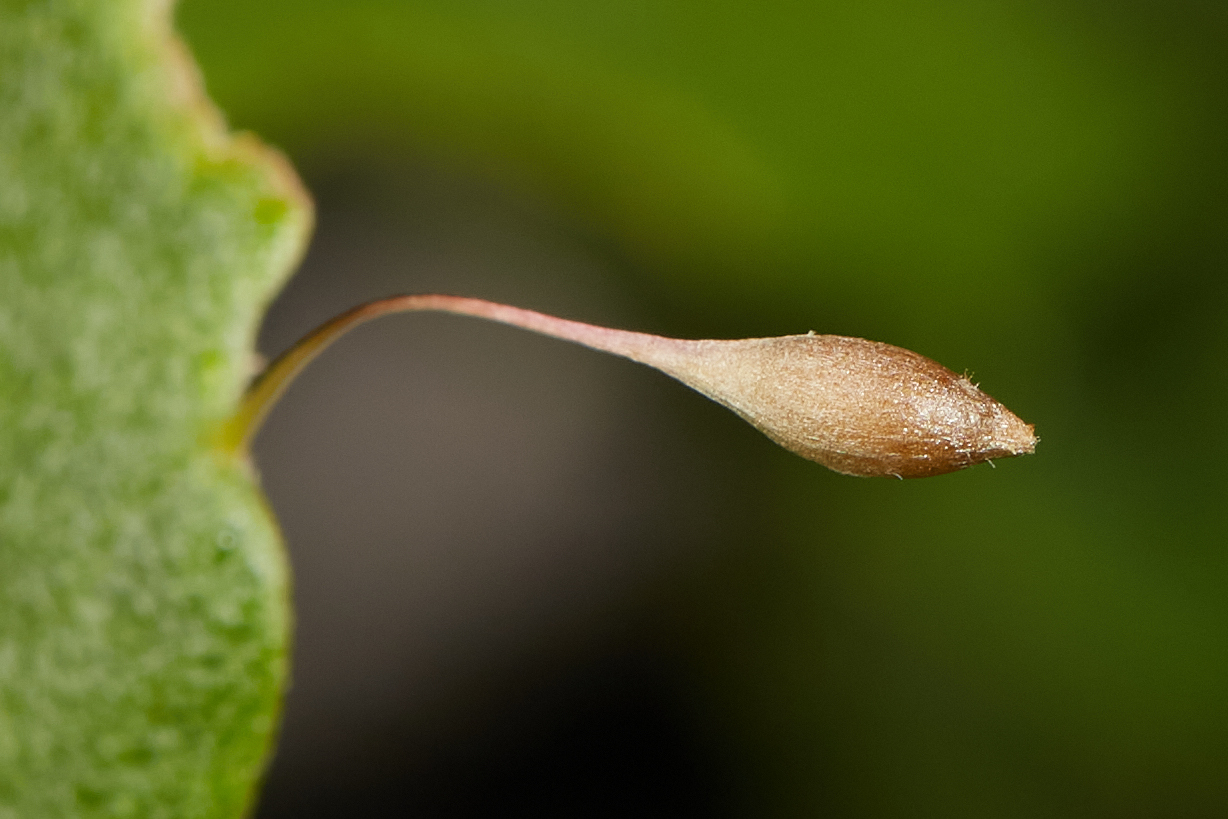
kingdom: Animalia
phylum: Arthropoda
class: Insecta
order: Hymenoptera
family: Cynipidae
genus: Andricus
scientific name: Andricus
